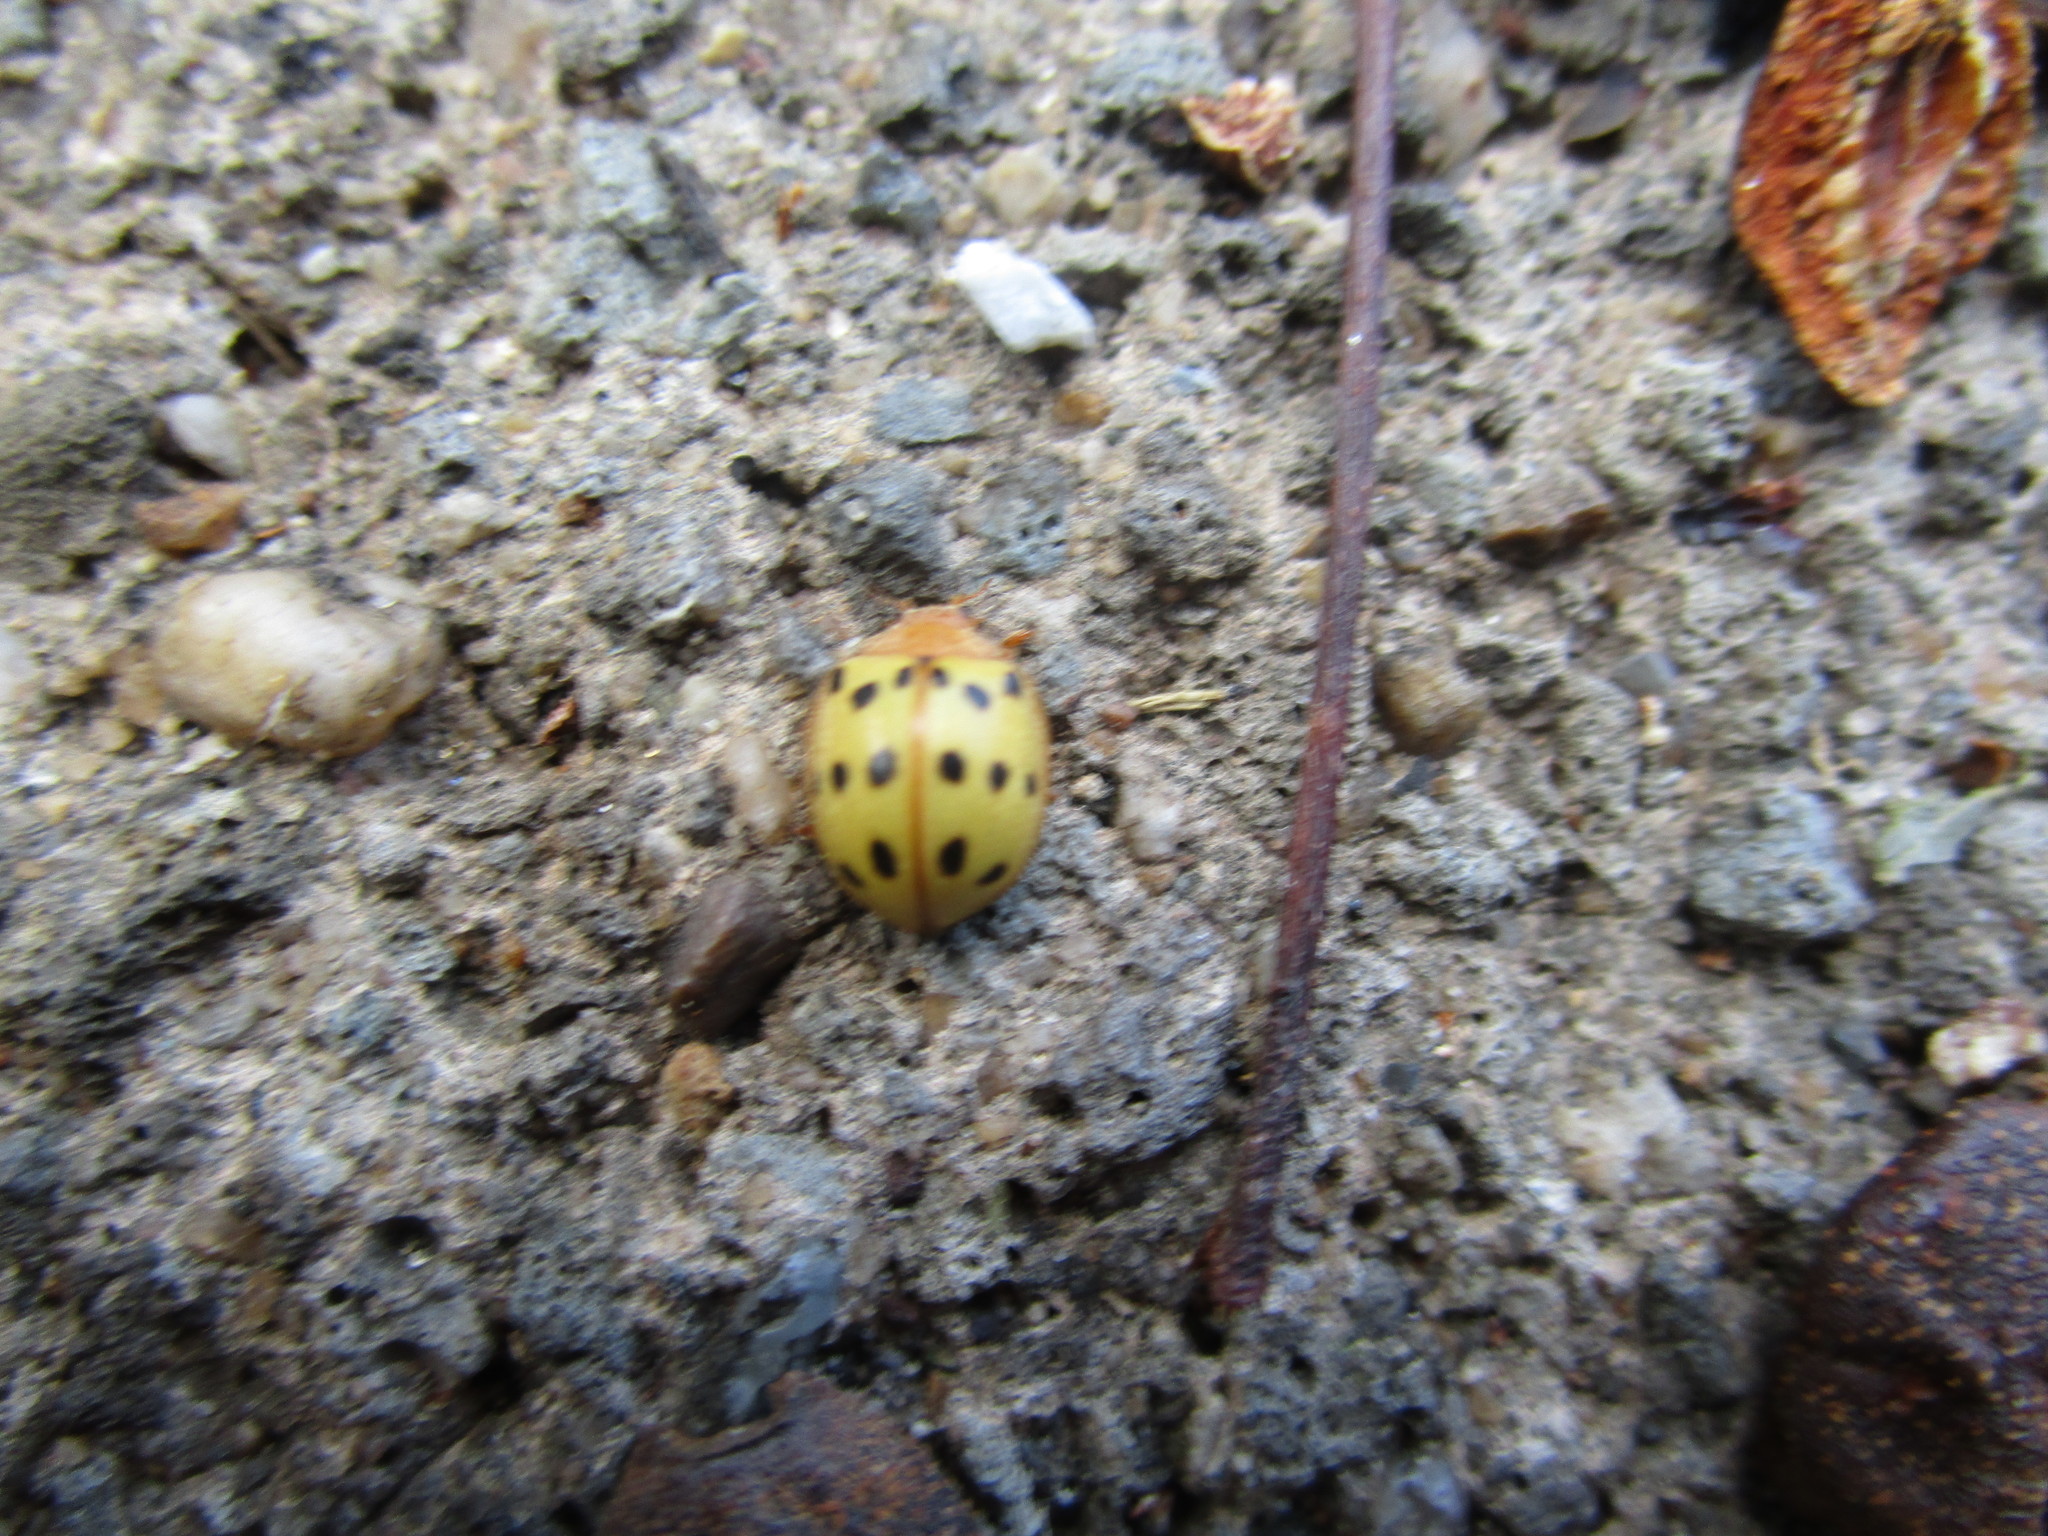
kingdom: Animalia
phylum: Arthropoda
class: Insecta
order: Coleoptera
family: Coccinellidae
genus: Epilachna
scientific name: Epilachna varivestis
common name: Ladybird beetle
